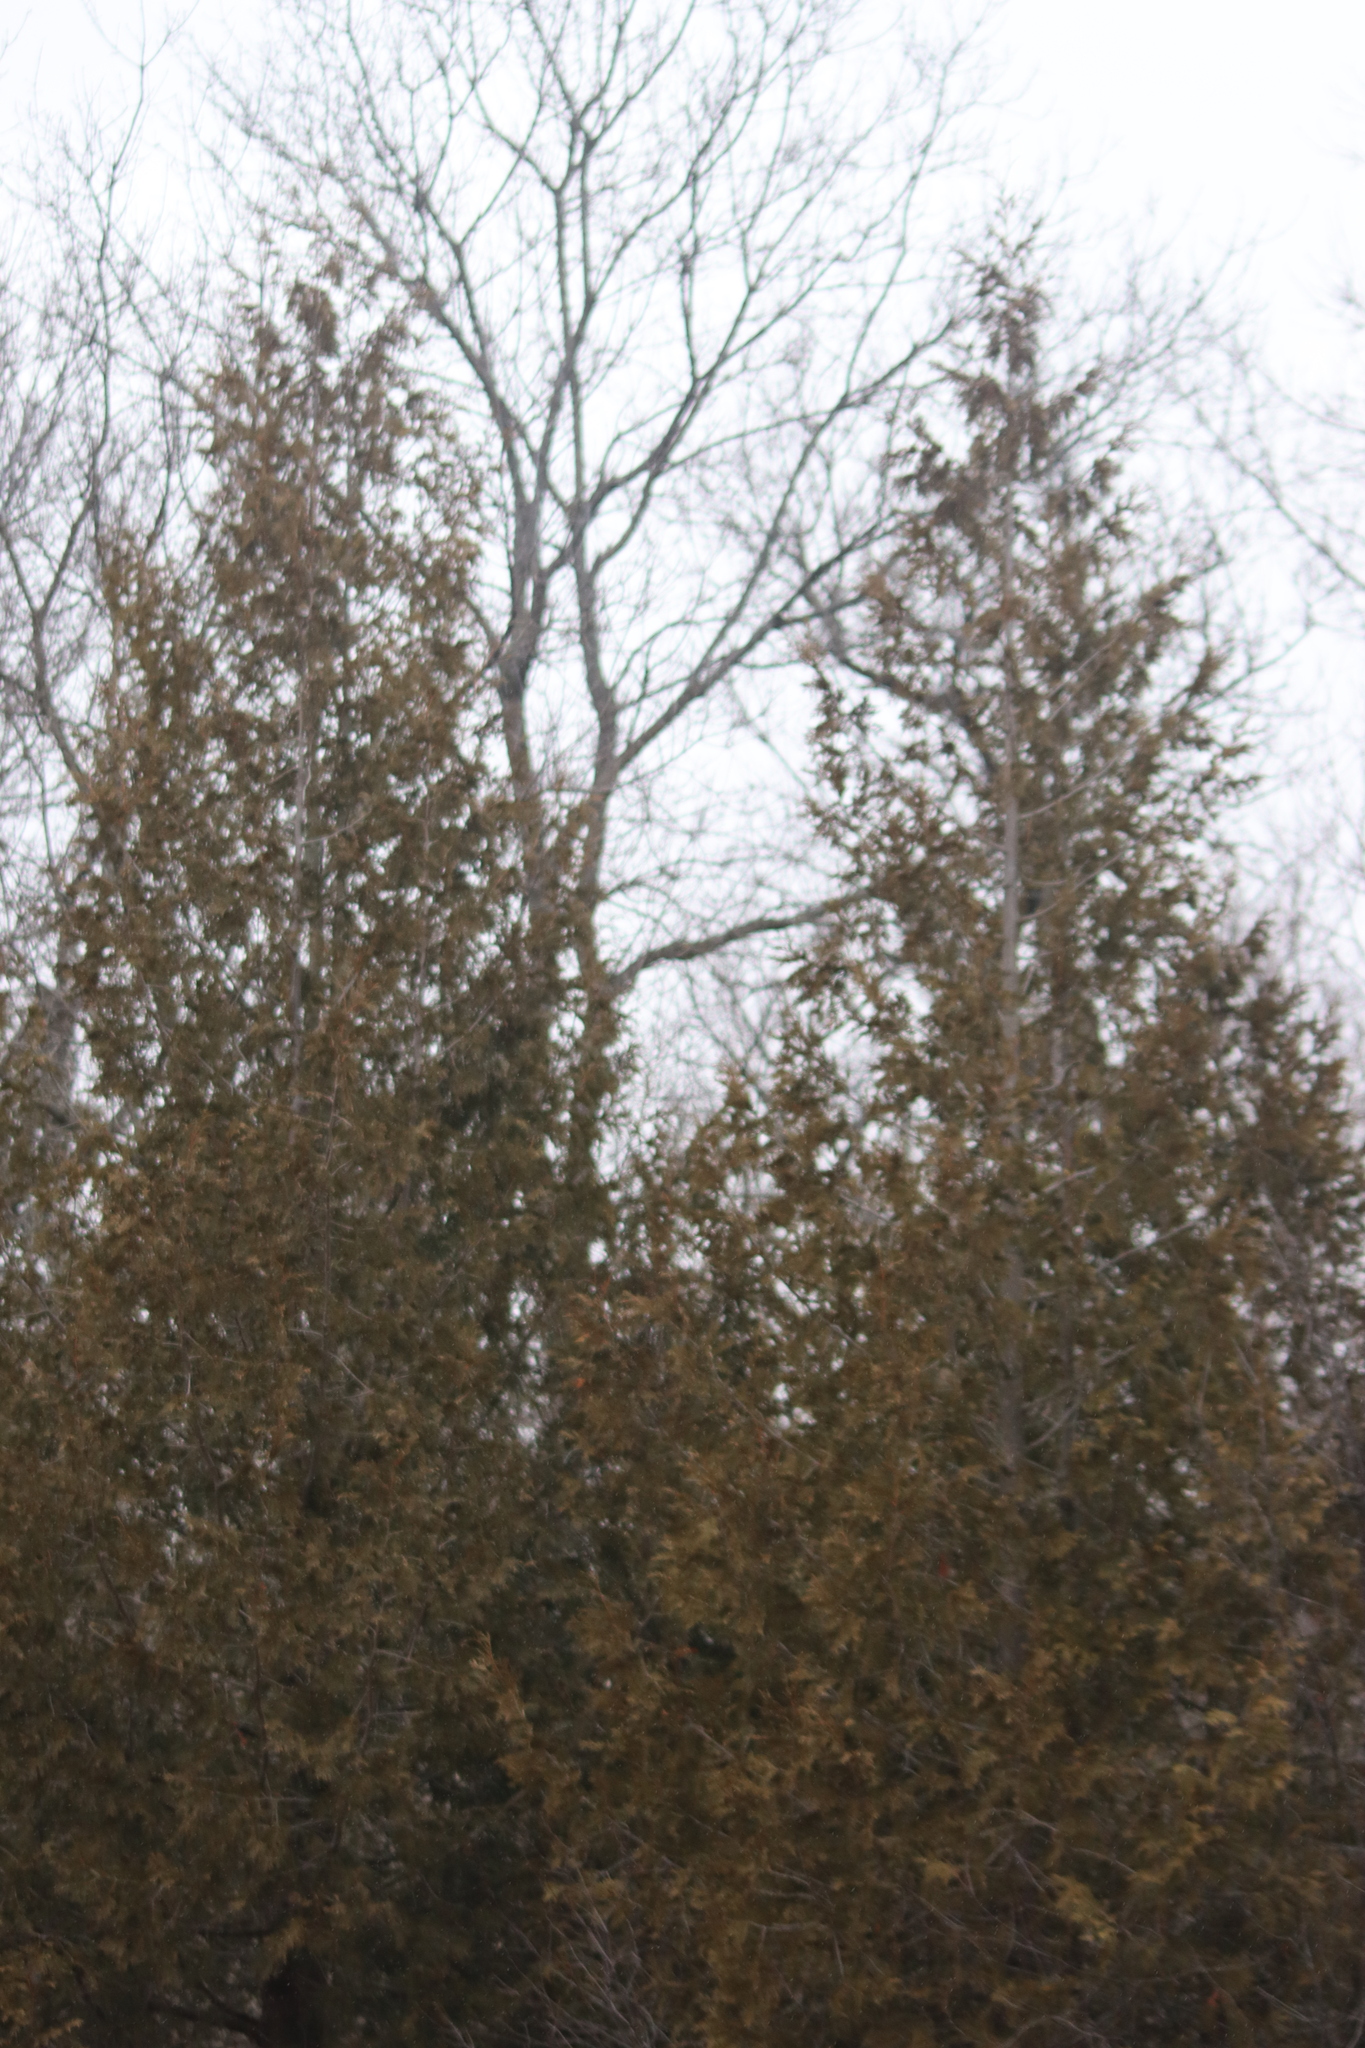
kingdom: Plantae
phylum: Tracheophyta
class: Pinopsida
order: Pinales
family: Cupressaceae
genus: Thuja
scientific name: Thuja occidentalis
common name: Northern white-cedar
